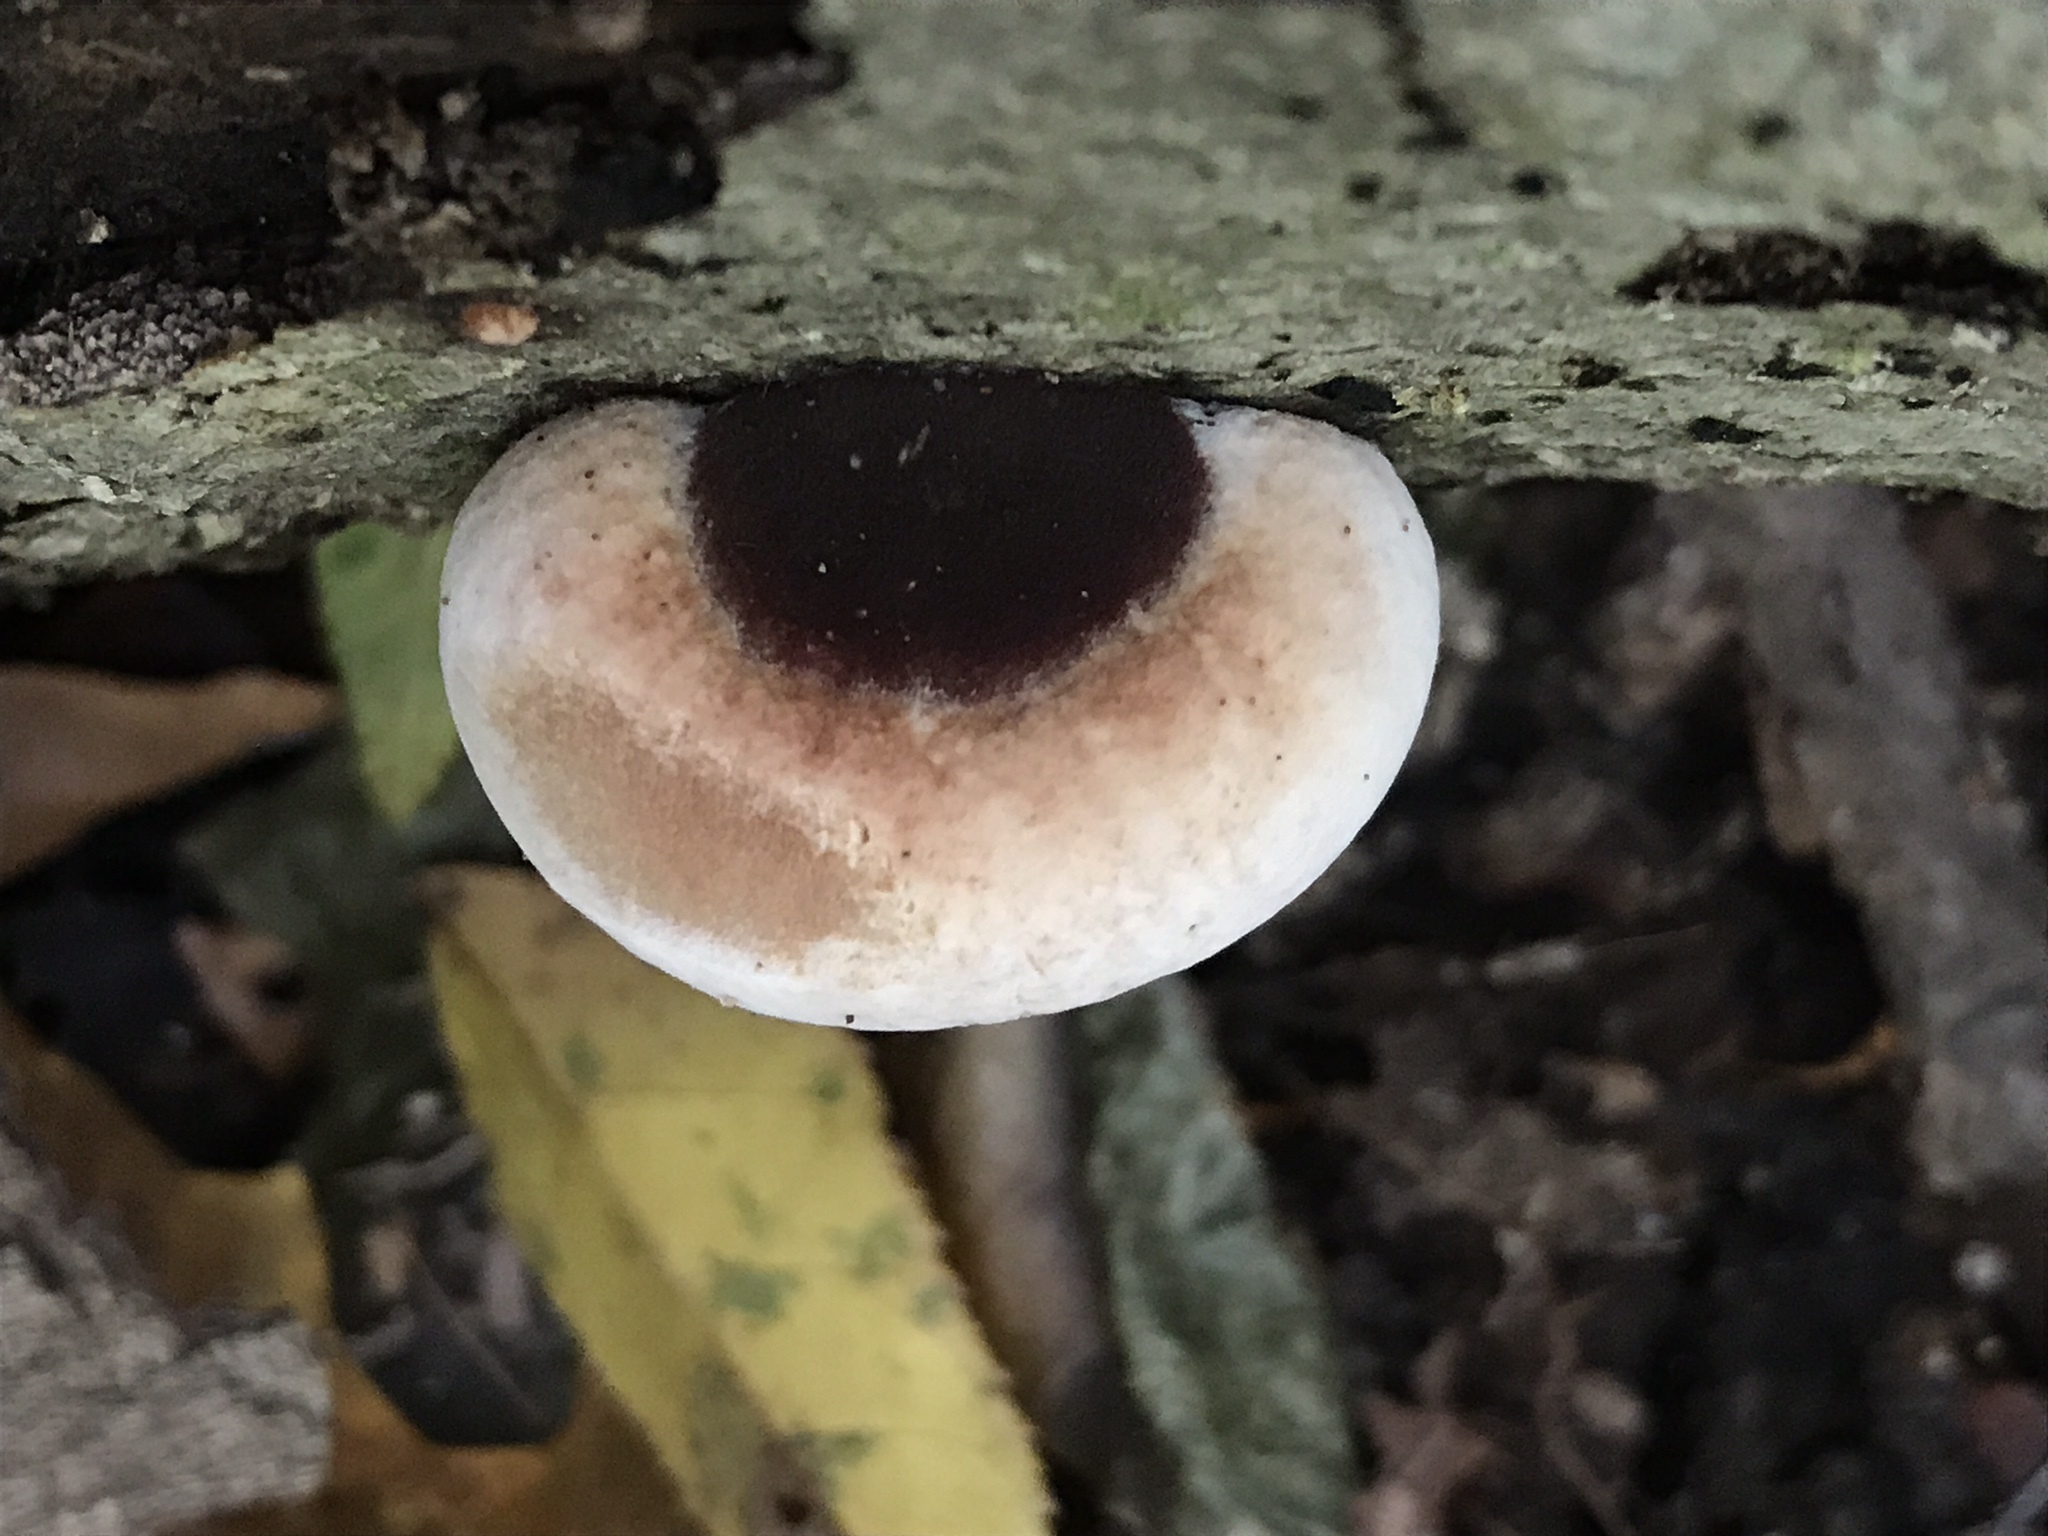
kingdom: Fungi
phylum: Basidiomycota
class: Agaricomycetes
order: Polyporales
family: Ischnodermataceae
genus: Ischnoderma
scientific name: Ischnoderma resinosum
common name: Resinous polypore
